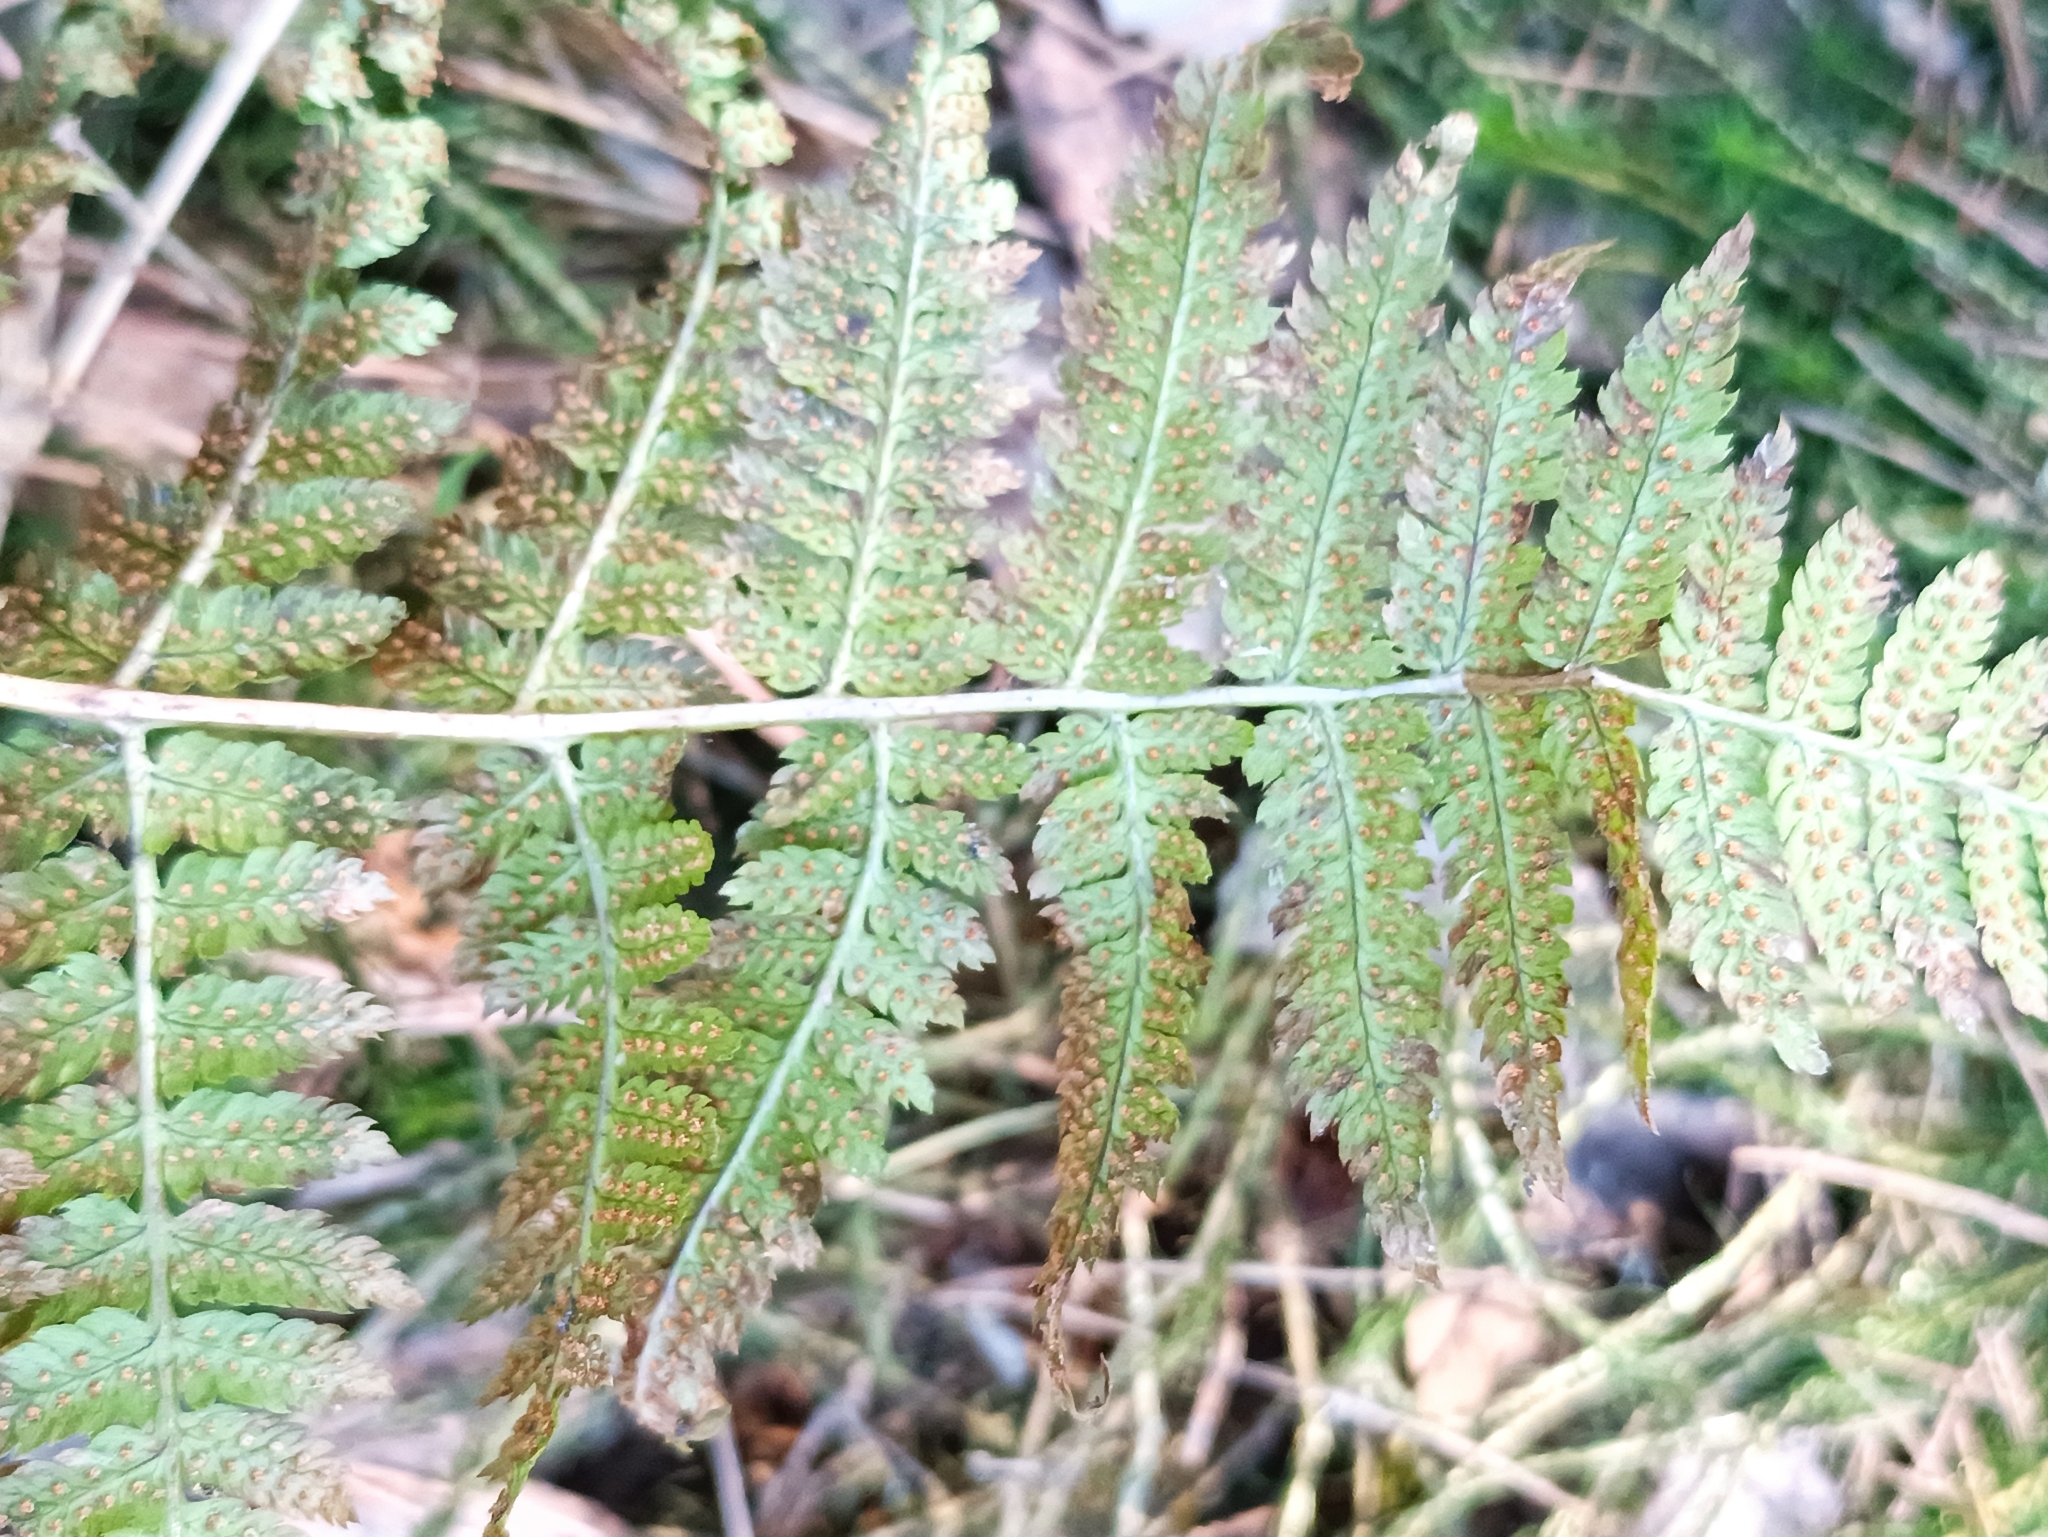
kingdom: Plantae
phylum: Tracheophyta
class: Polypodiopsida
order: Polypodiales
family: Dryopteridaceae
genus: Dryopteris
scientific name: Dryopteris carthusiana
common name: Narrow buckler-fern
